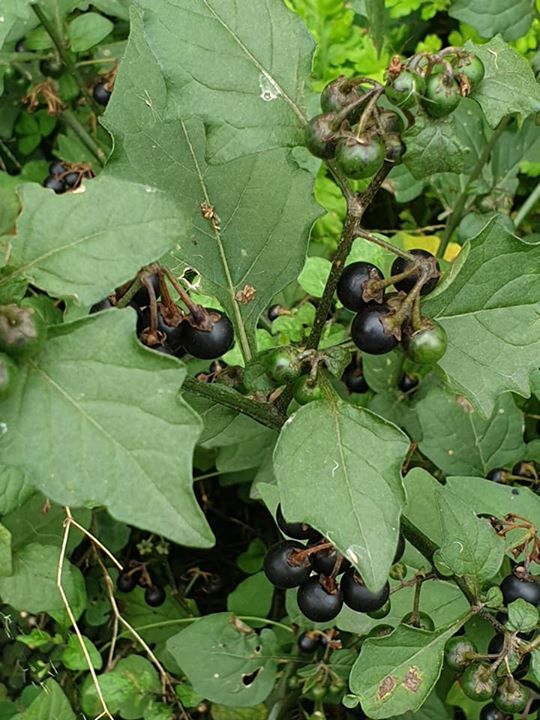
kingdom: Plantae
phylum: Tracheophyta
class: Magnoliopsida
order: Solanales
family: Solanaceae
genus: Solanum
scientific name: Solanum nigrum
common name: Black nightshade
